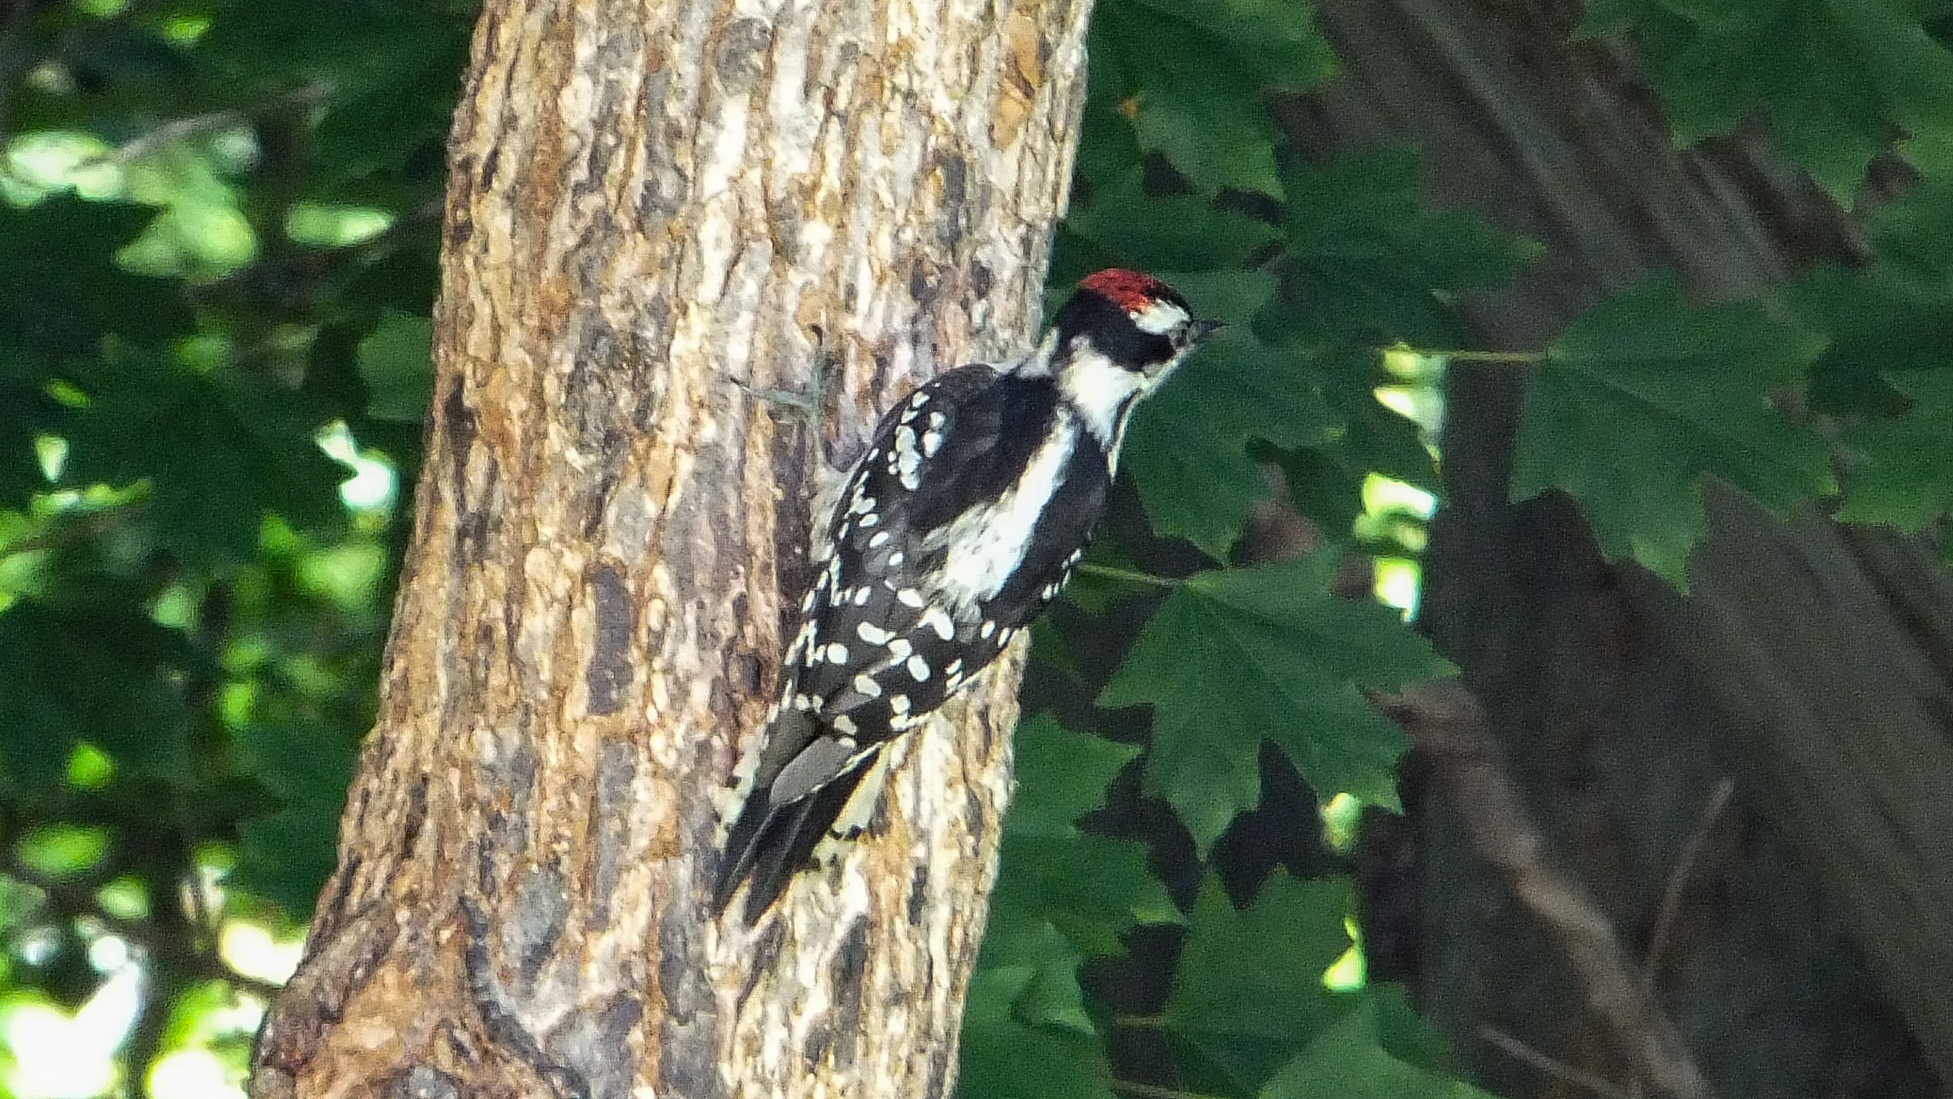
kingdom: Animalia
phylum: Chordata
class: Aves
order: Piciformes
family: Picidae
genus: Dryobates
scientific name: Dryobates pubescens
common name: Downy woodpecker
